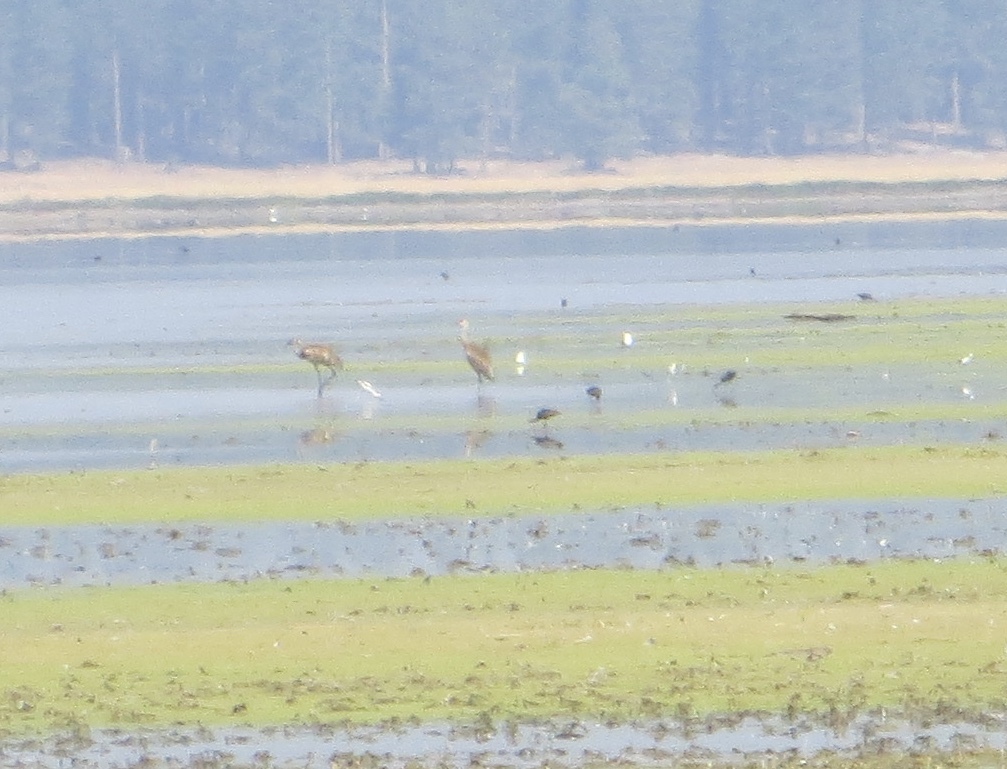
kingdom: Animalia
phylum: Chordata
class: Aves
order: Pelecaniformes
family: Threskiornithidae
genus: Plegadis
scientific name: Plegadis chihi
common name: White-faced ibis
